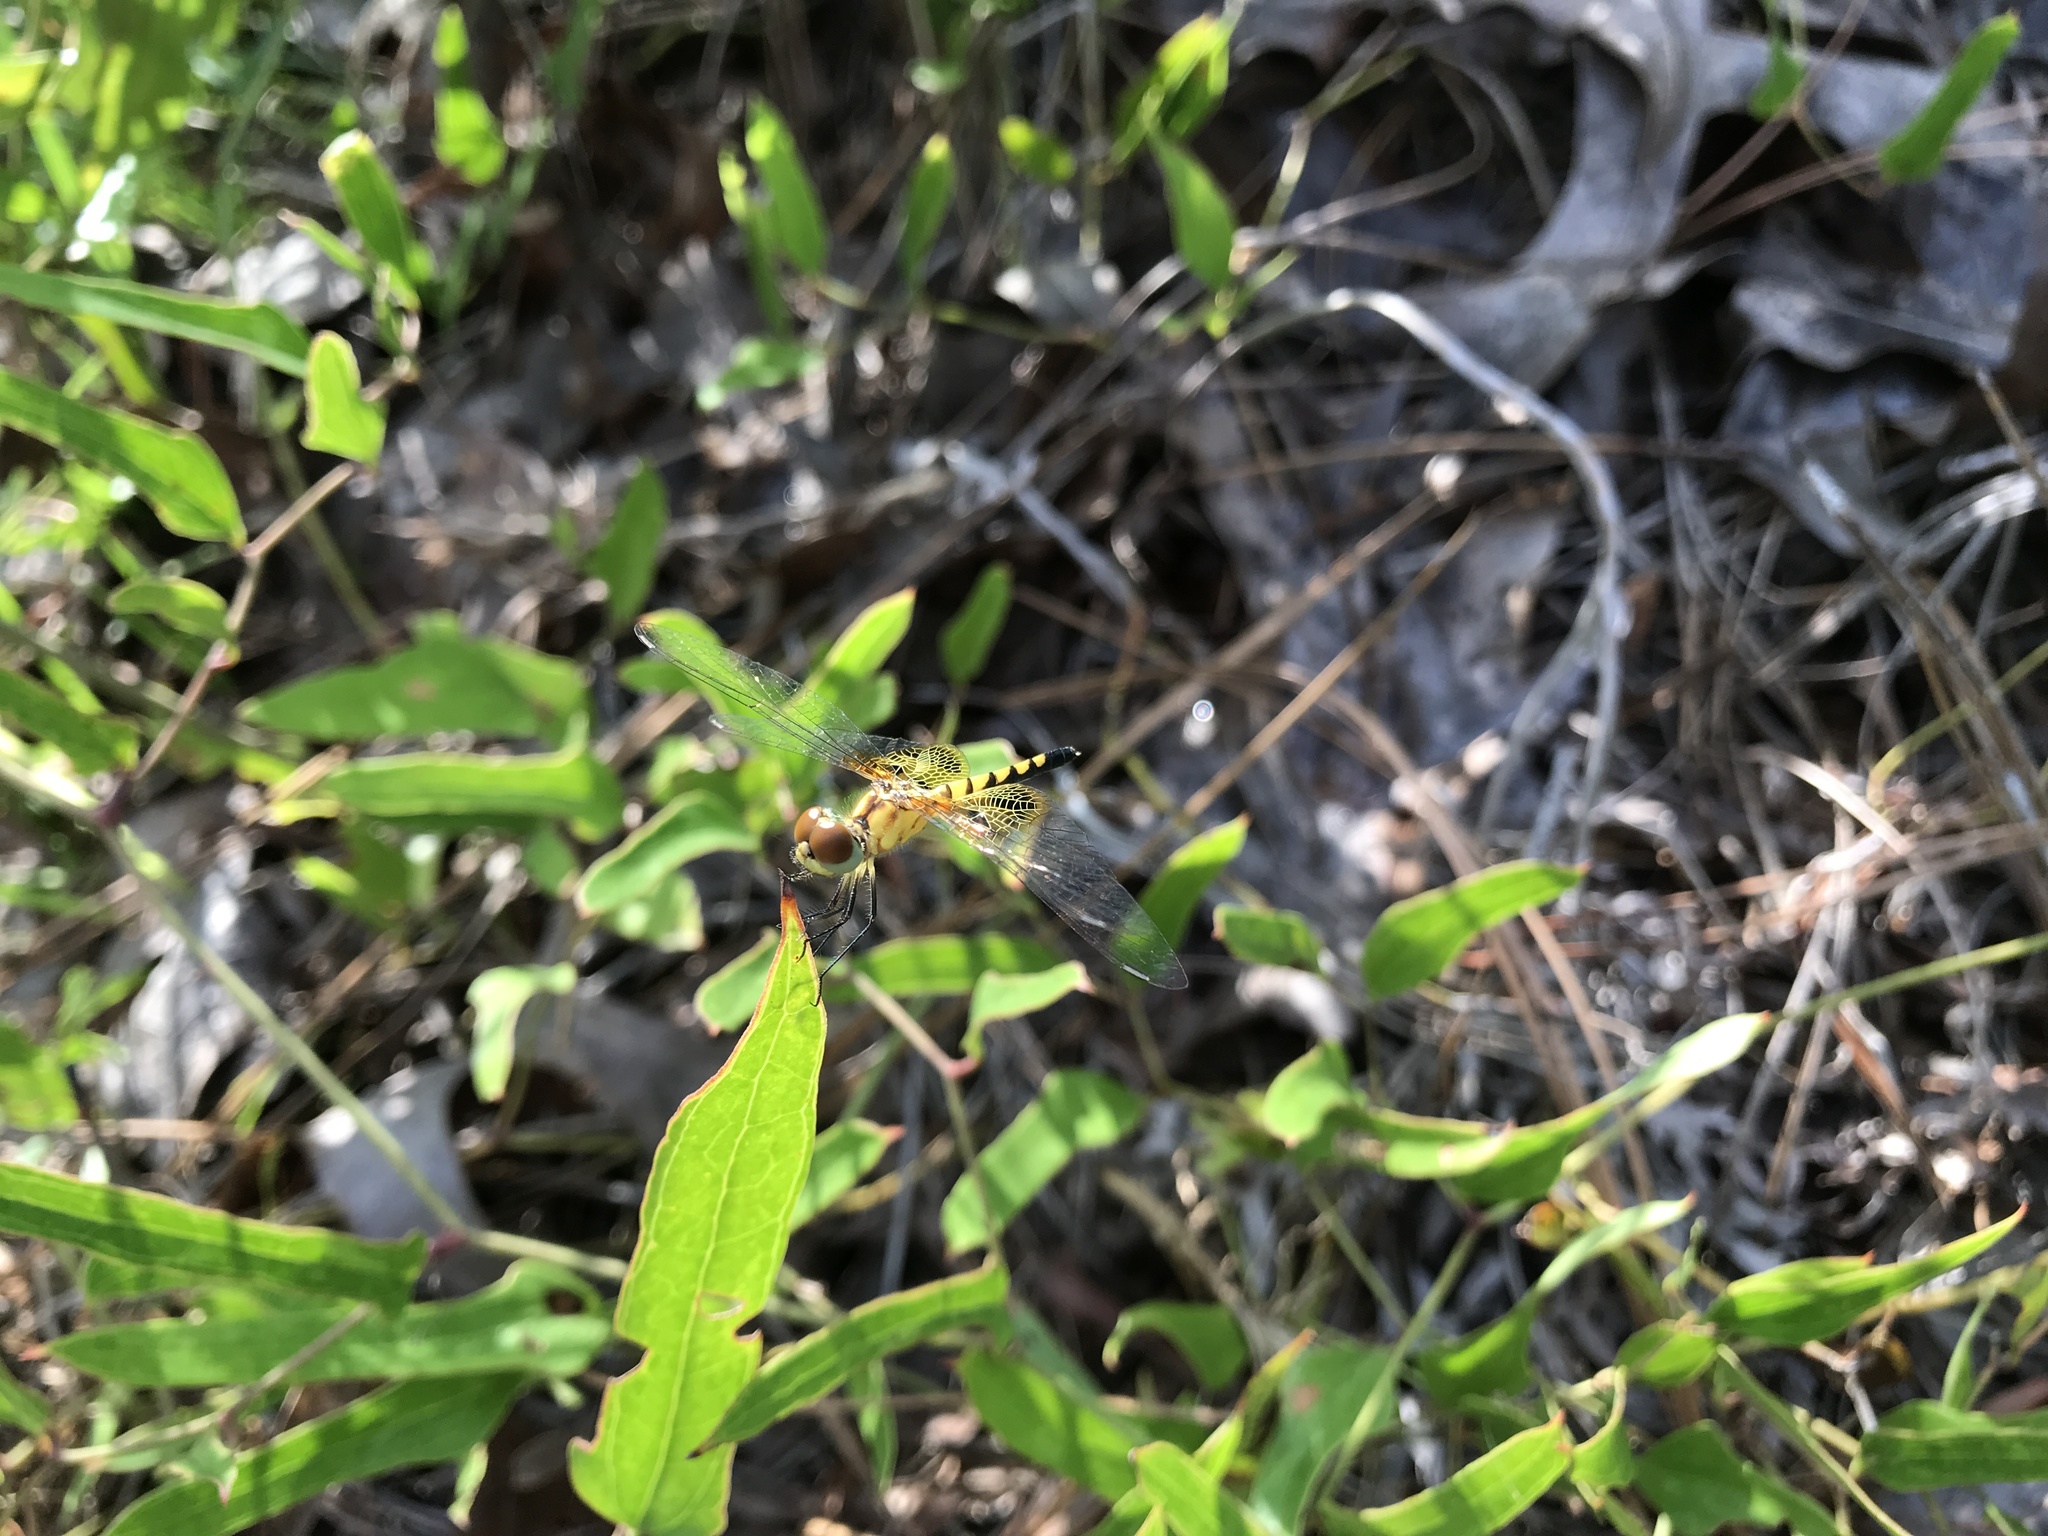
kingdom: Animalia
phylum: Arthropoda
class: Insecta
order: Odonata
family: Libellulidae
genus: Celithemis
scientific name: Celithemis amanda
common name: Amanda's pennant
